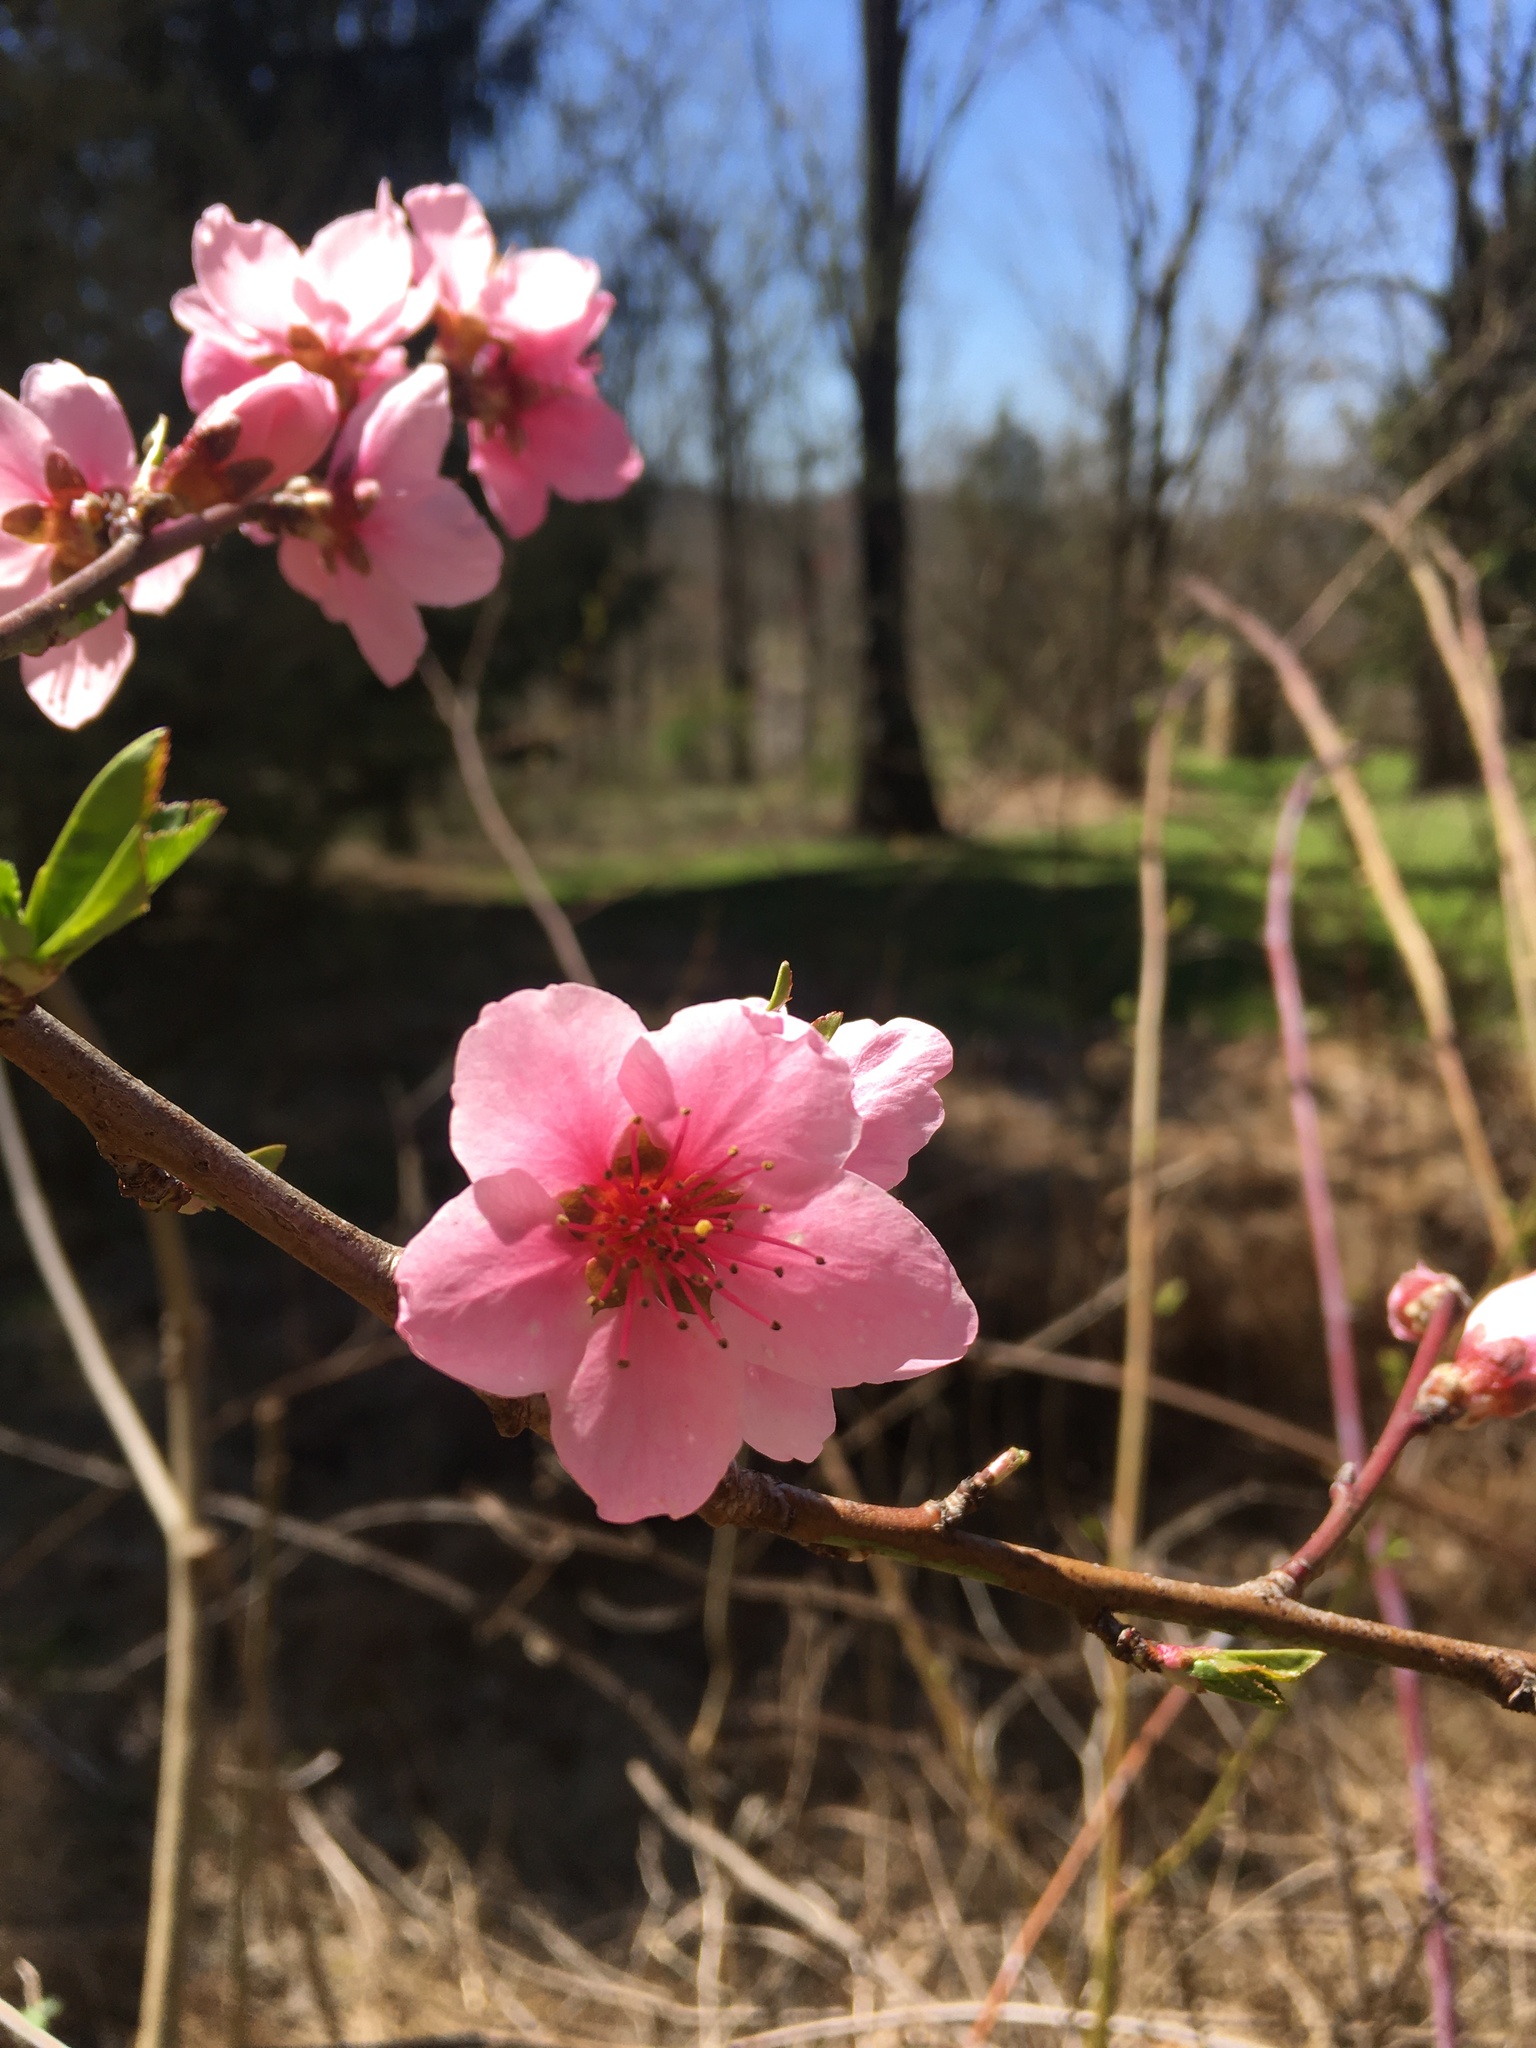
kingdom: Plantae
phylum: Tracheophyta
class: Magnoliopsida
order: Rosales
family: Rosaceae
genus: Prunus
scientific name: Prunus persica
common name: Peach
